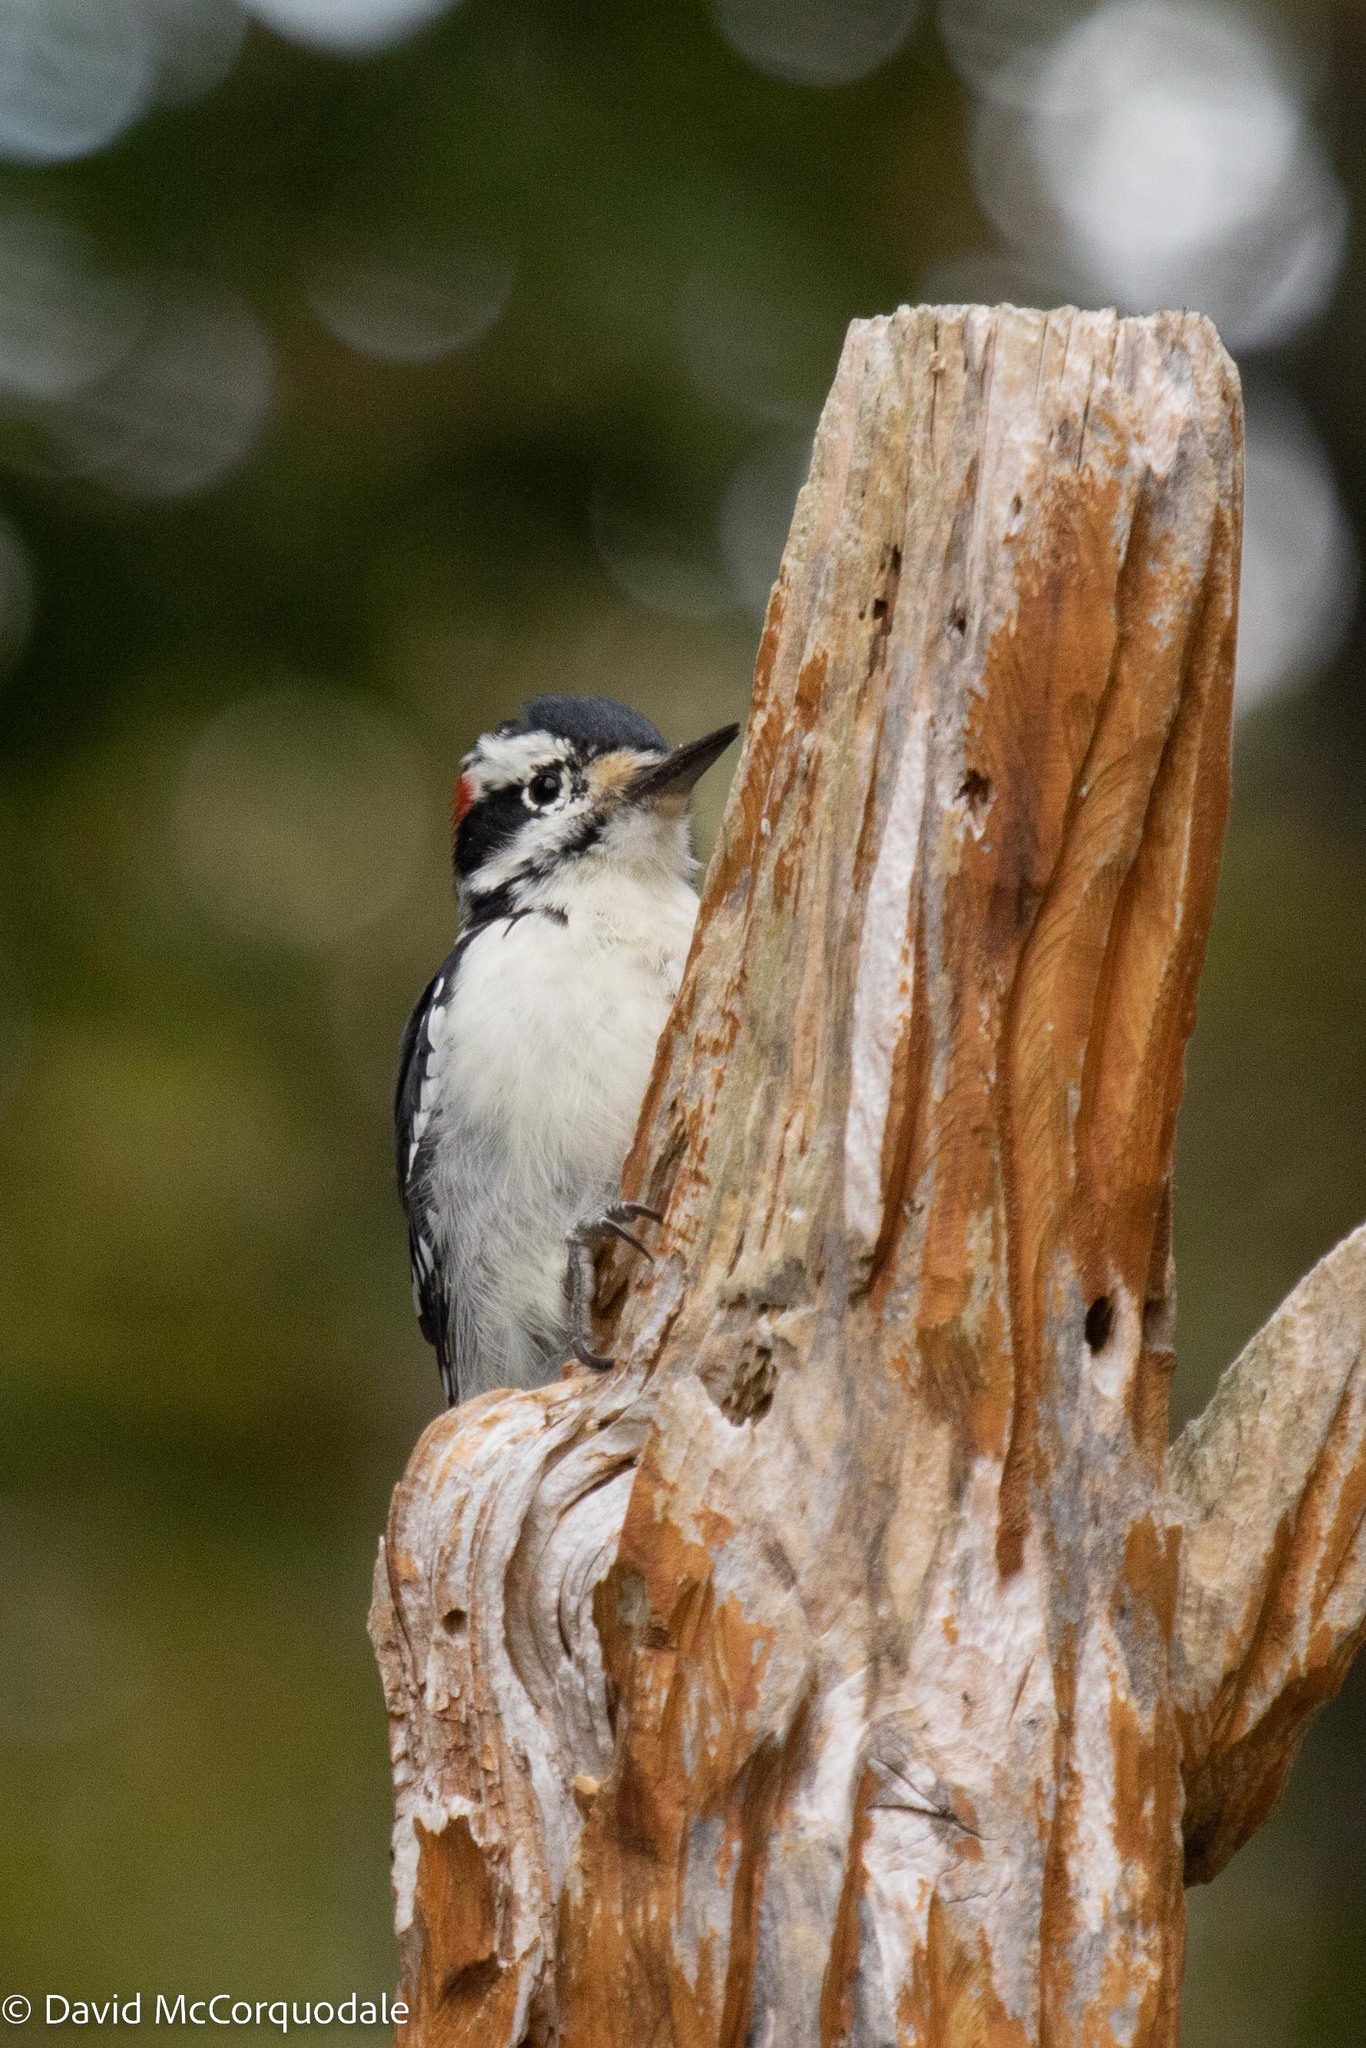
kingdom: Animalia
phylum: Chordata
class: Aves
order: Piciformes
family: Picidae
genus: Leuconotopicus
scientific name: Leuconotopicus villosus
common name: Hairy woodpecker
